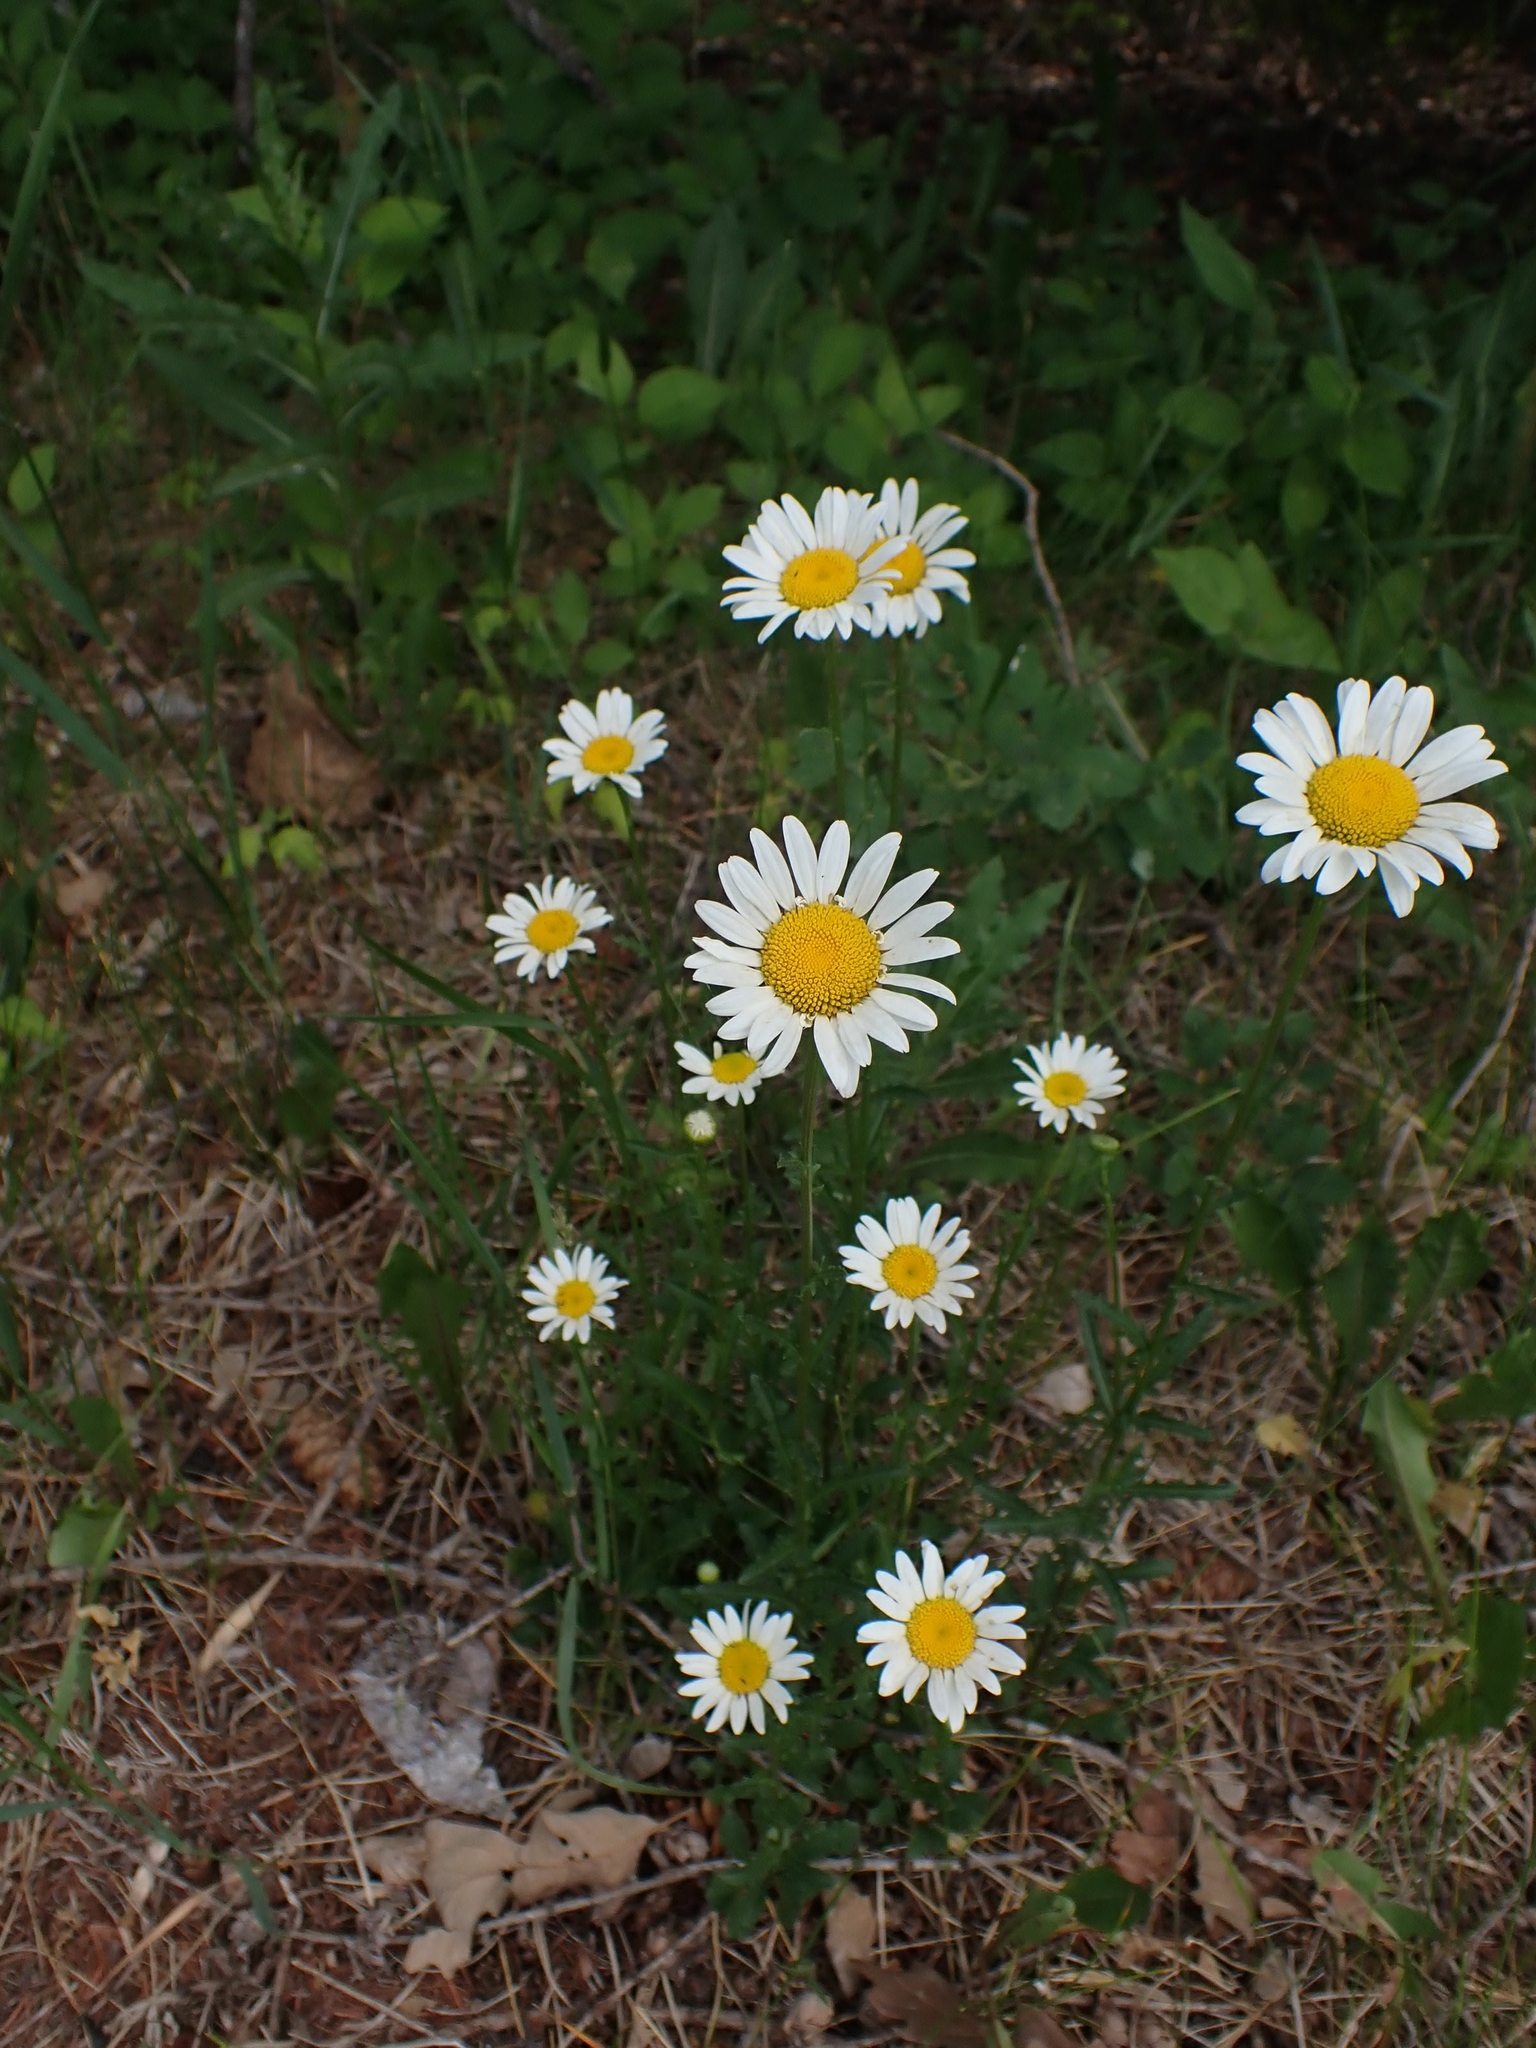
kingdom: Plantae
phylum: Tracheophyta
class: Magnoliopsida
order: Asterales
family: Asteraceae
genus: Leucanthemum
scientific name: Leucanthemum vulgare
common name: Oxeye daisy
